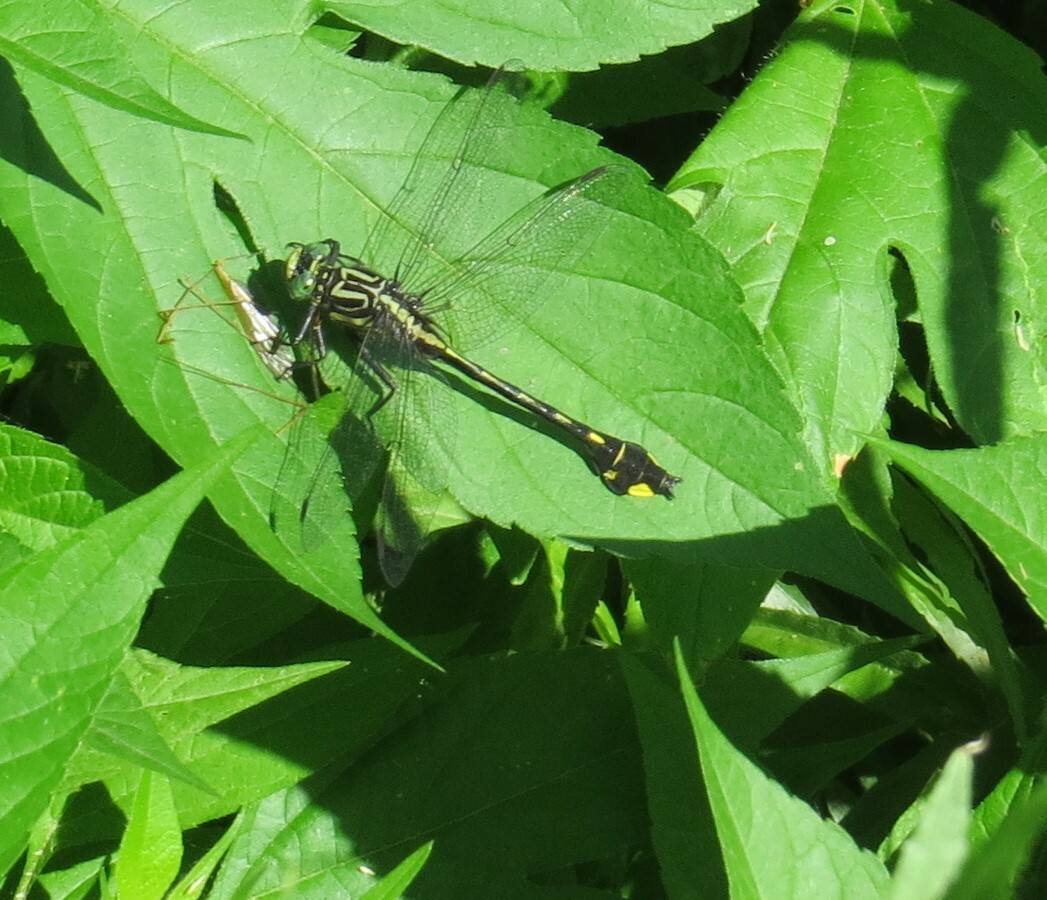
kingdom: Animalia
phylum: Arthropoda
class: Insecta
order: Odonata
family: Gomphidae
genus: Gomphurus
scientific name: Gomphurus vastus
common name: Cobra clubtail
